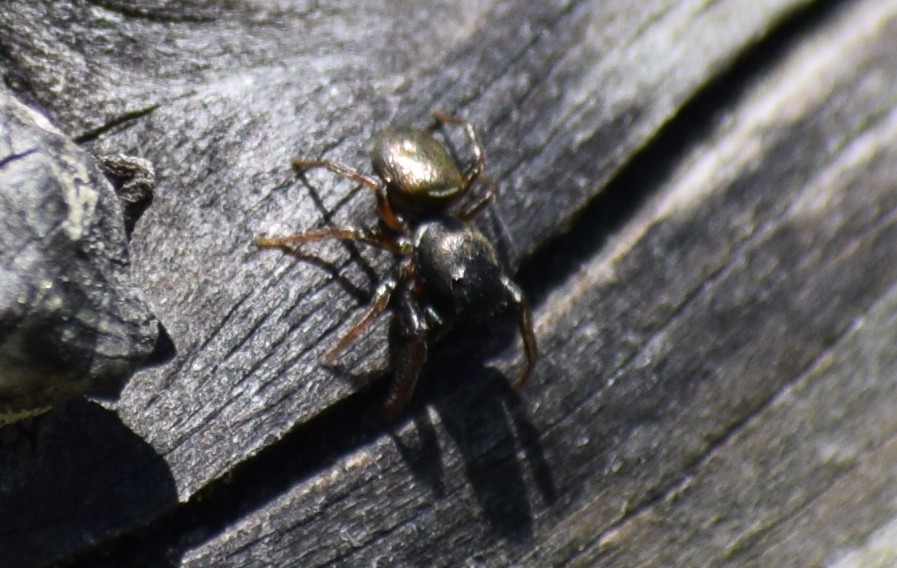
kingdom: Animalia
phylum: Arthropoda
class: Arachnida
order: Araneae
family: Salticidae
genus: Heliophanus
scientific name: Heliophanus
